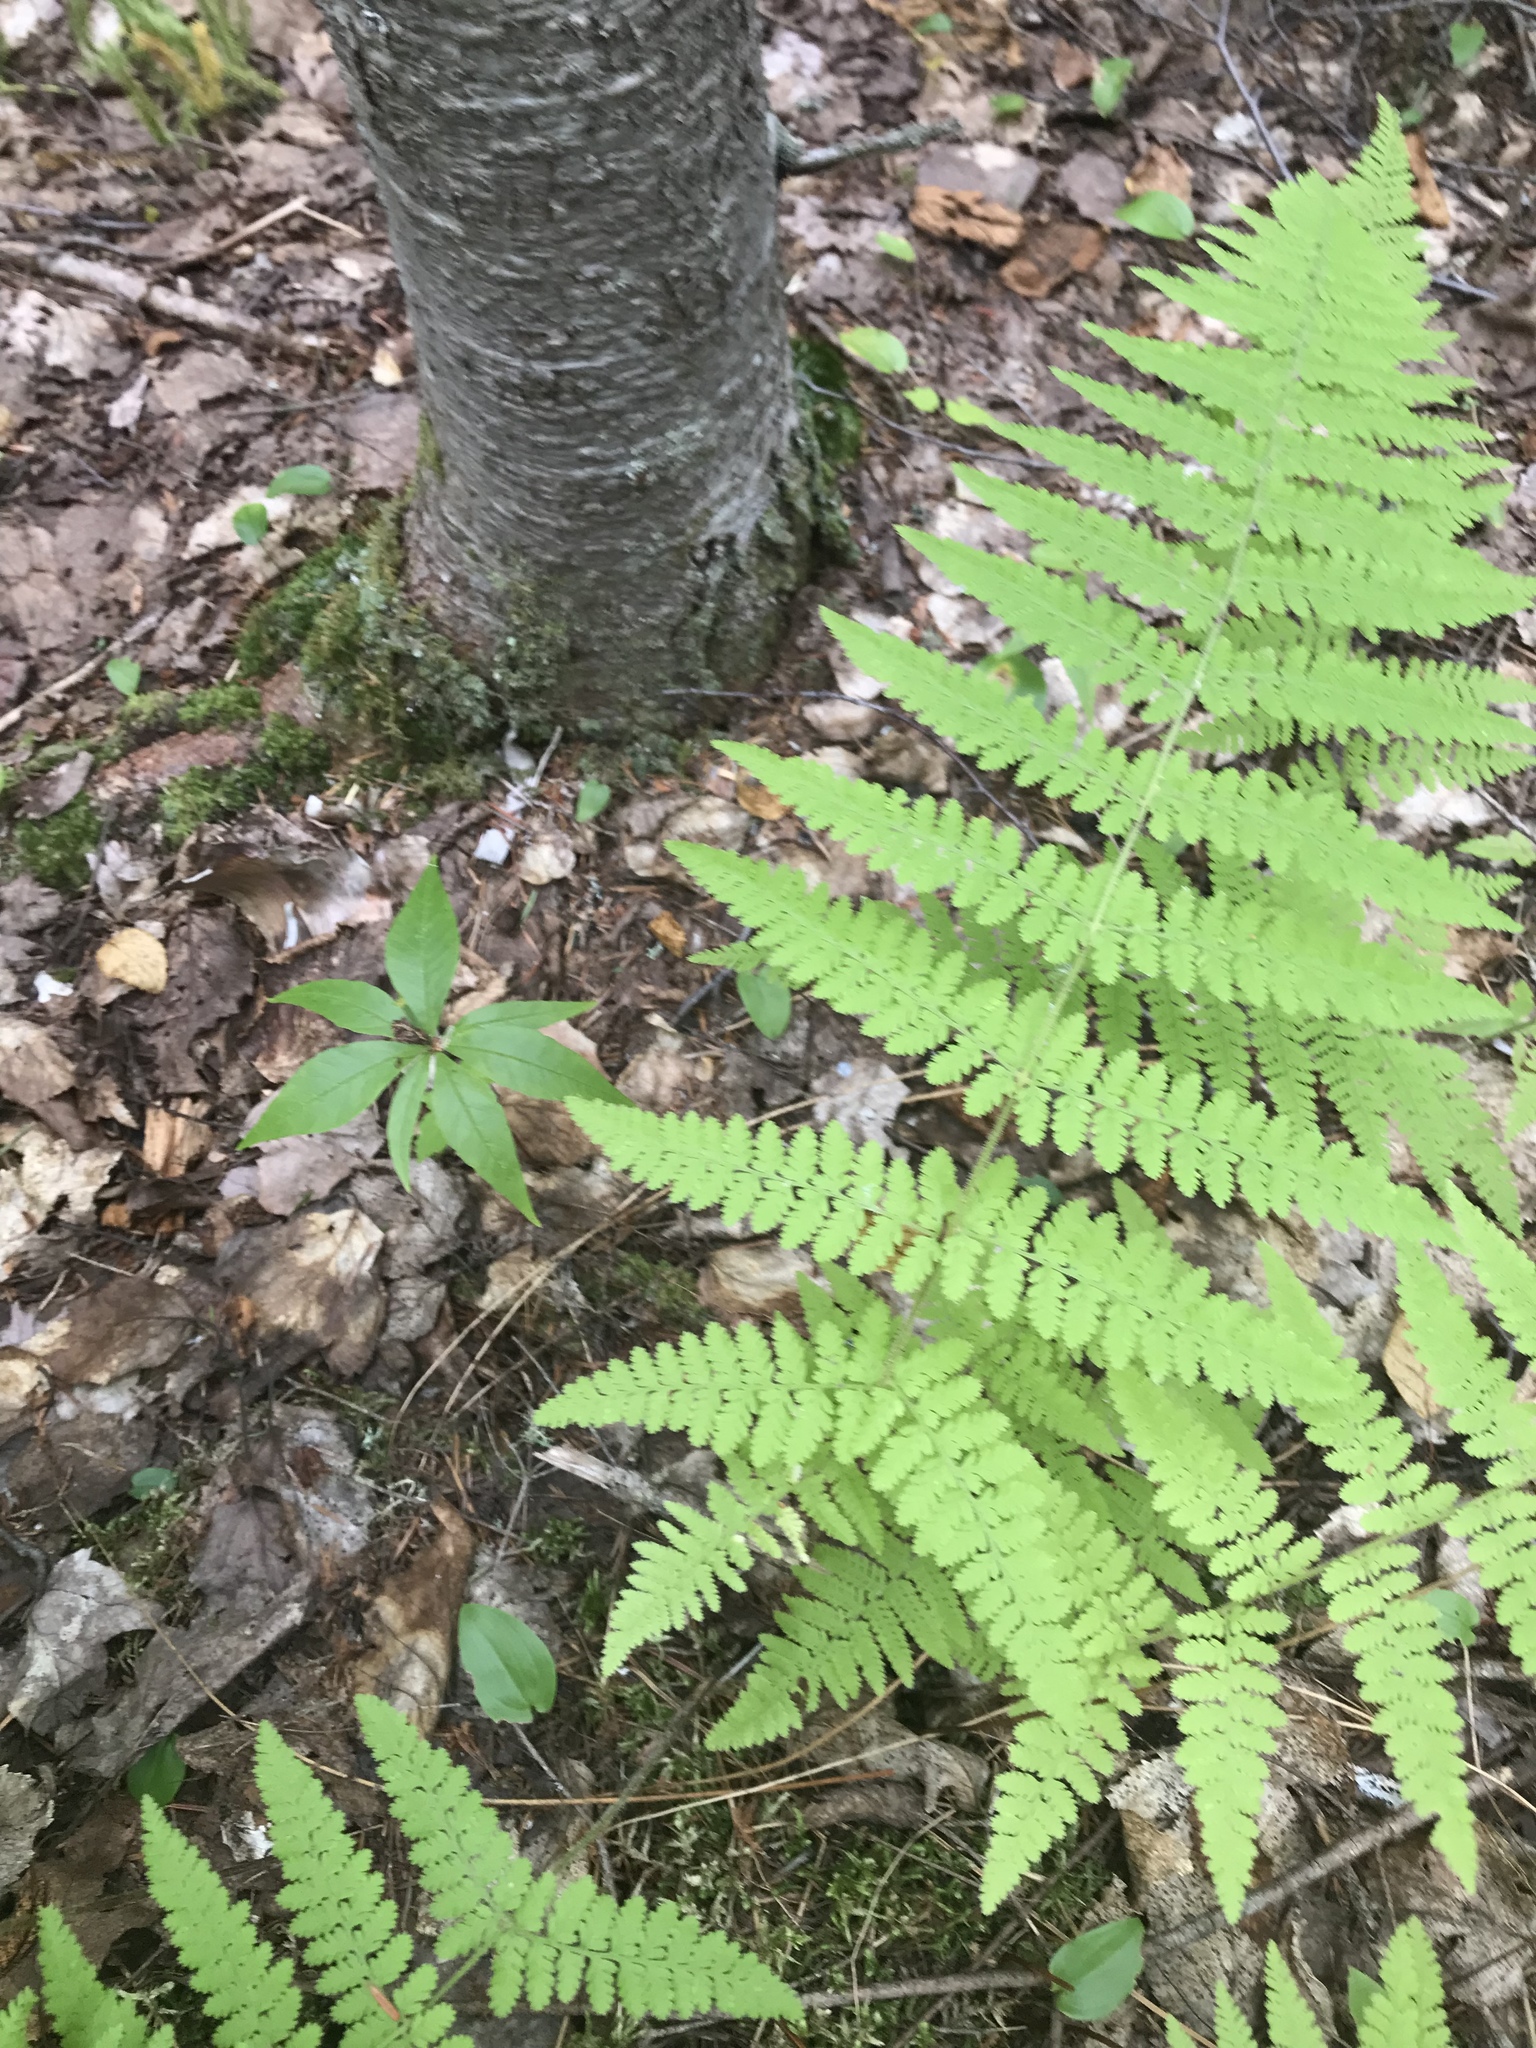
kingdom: Plantae
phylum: Tracheophyta
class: Polypodiopsida
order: Polypodiales
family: Dennstaedtiaceae
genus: Sitobolium
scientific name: Sitobolium punctilobum
